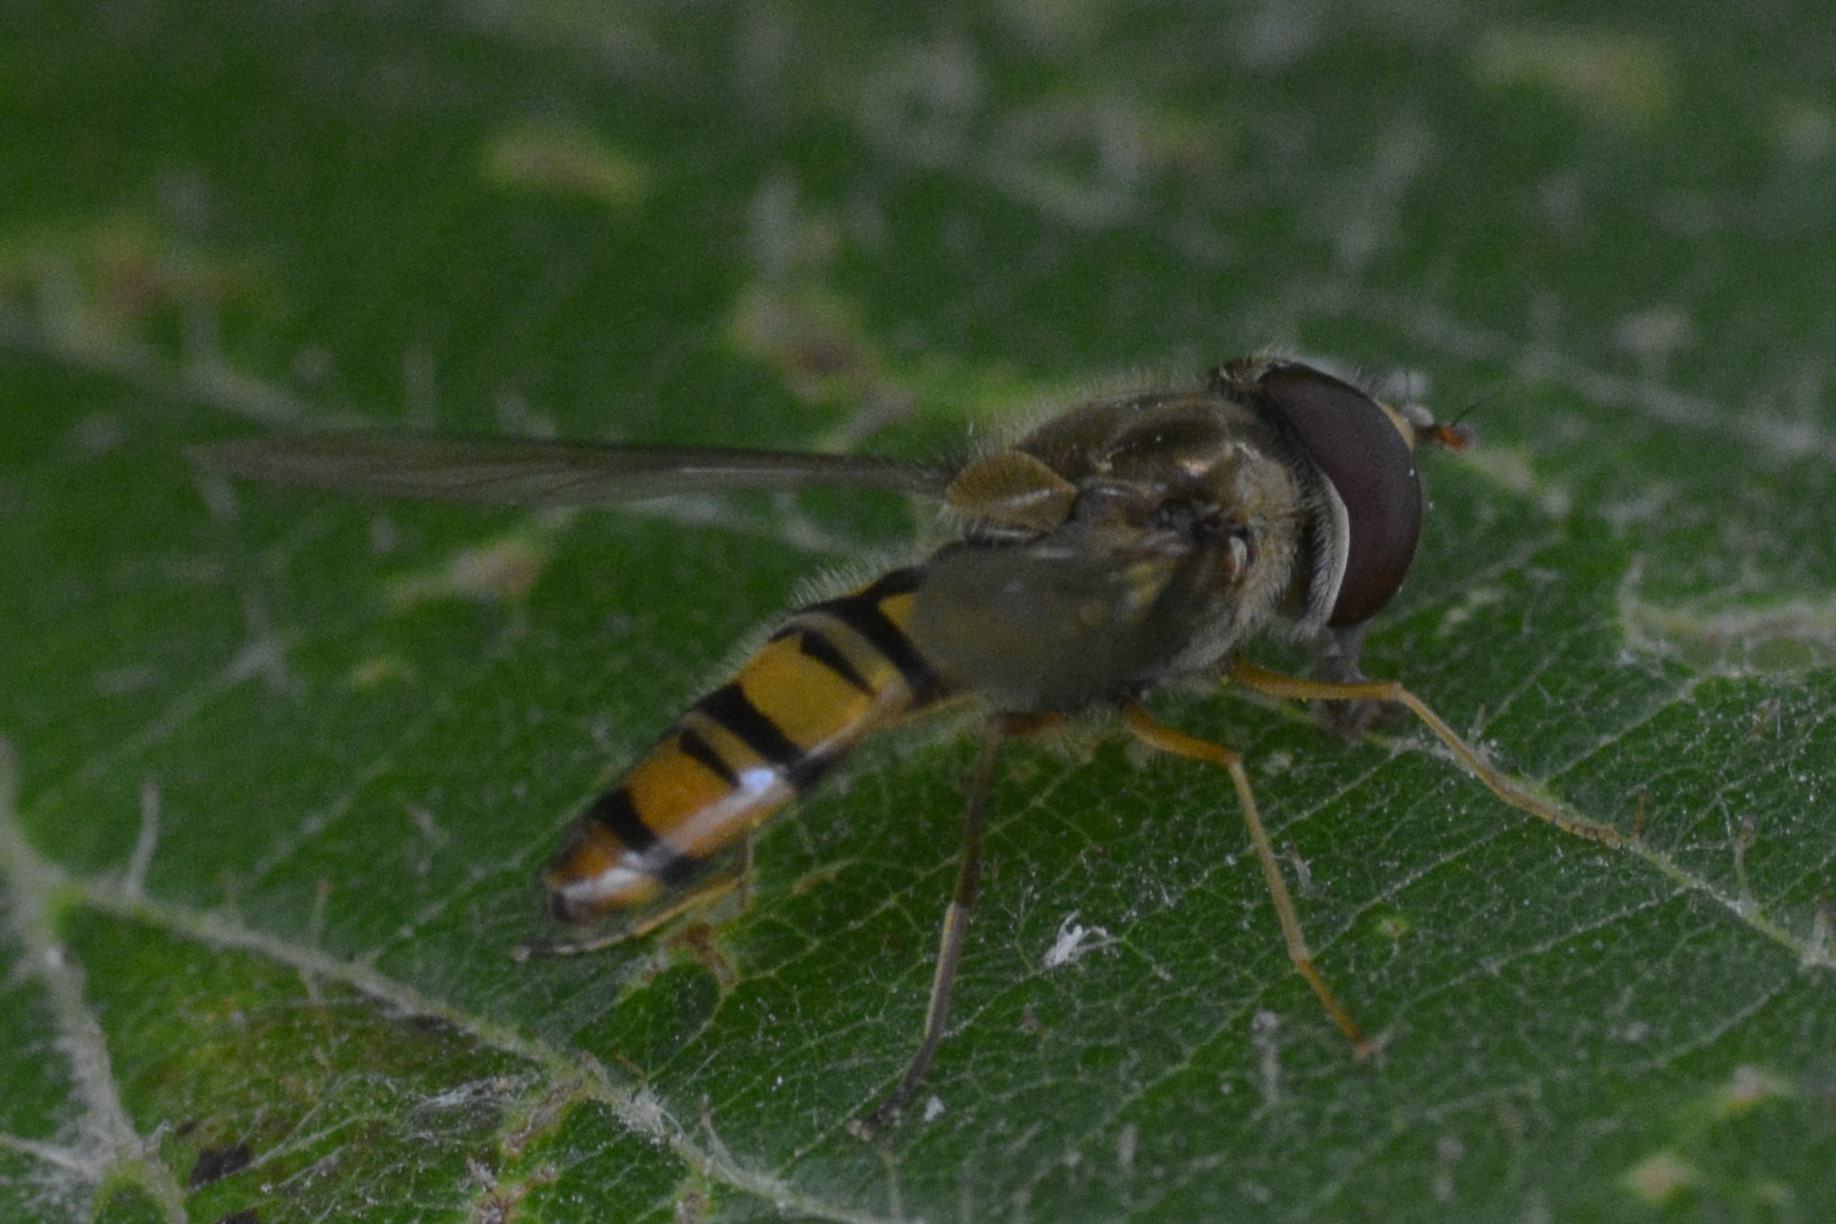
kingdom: Animalia
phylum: Arthropoda
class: Insecta
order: Diptera
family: Syrphidae
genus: Episyrphus
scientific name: Episyrphus balteatus
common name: Marmalade hoverfly
